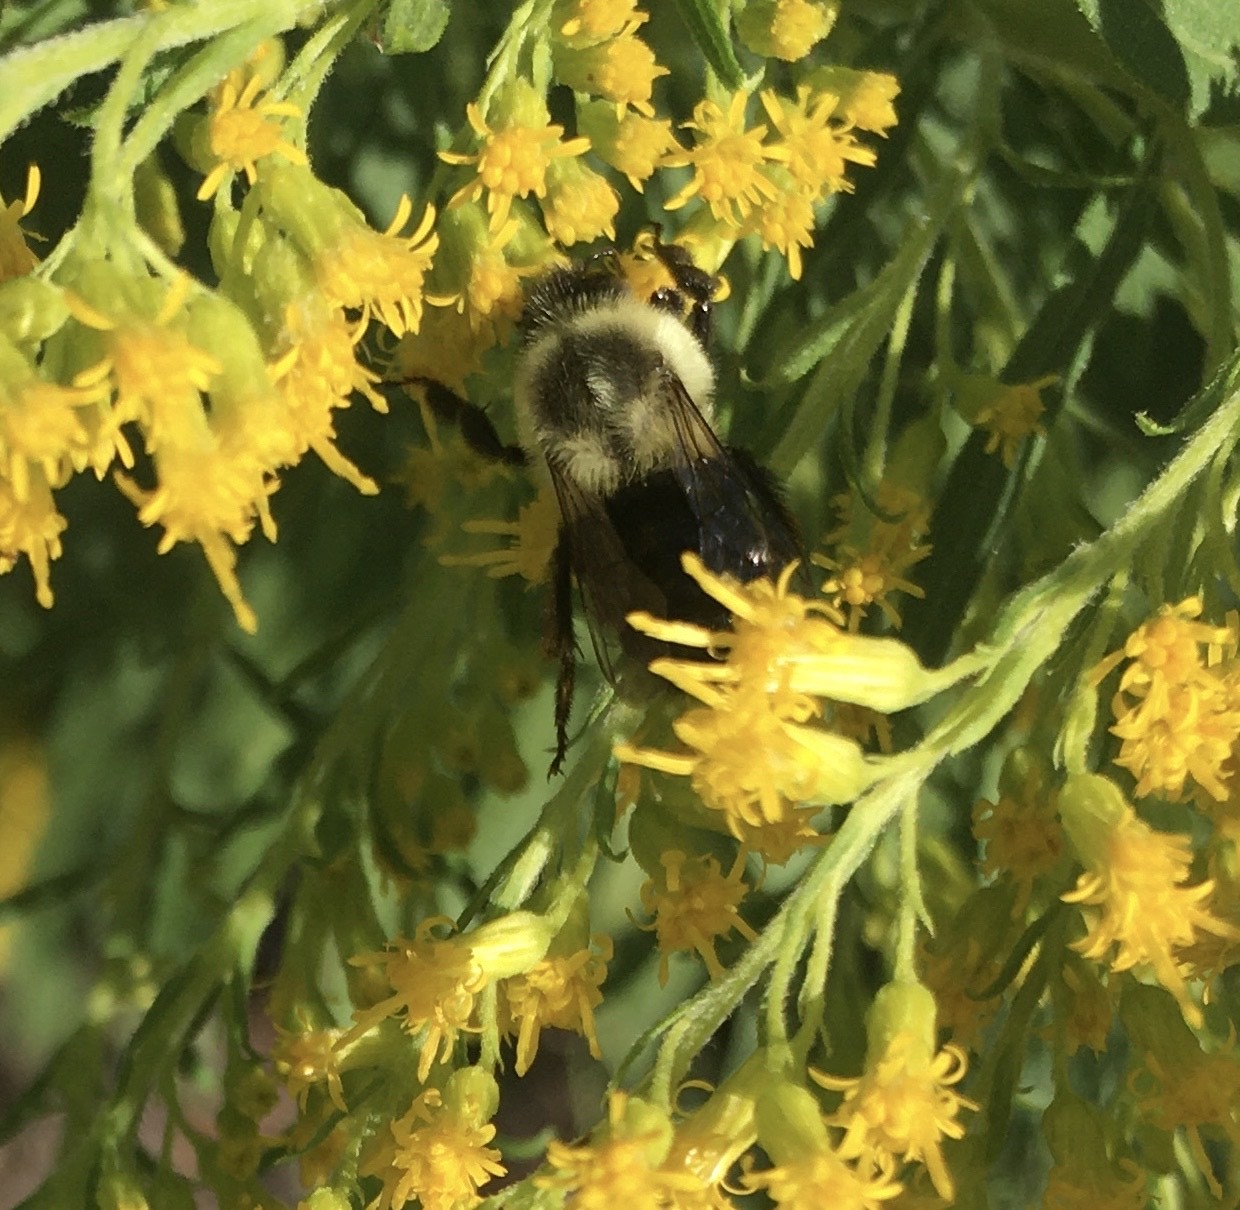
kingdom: Animalia
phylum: Arthropoda
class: Insecta
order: Hymenoptera
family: Apidae
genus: Bombus
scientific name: Bombus impatiens
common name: Common eastern bumble bee
